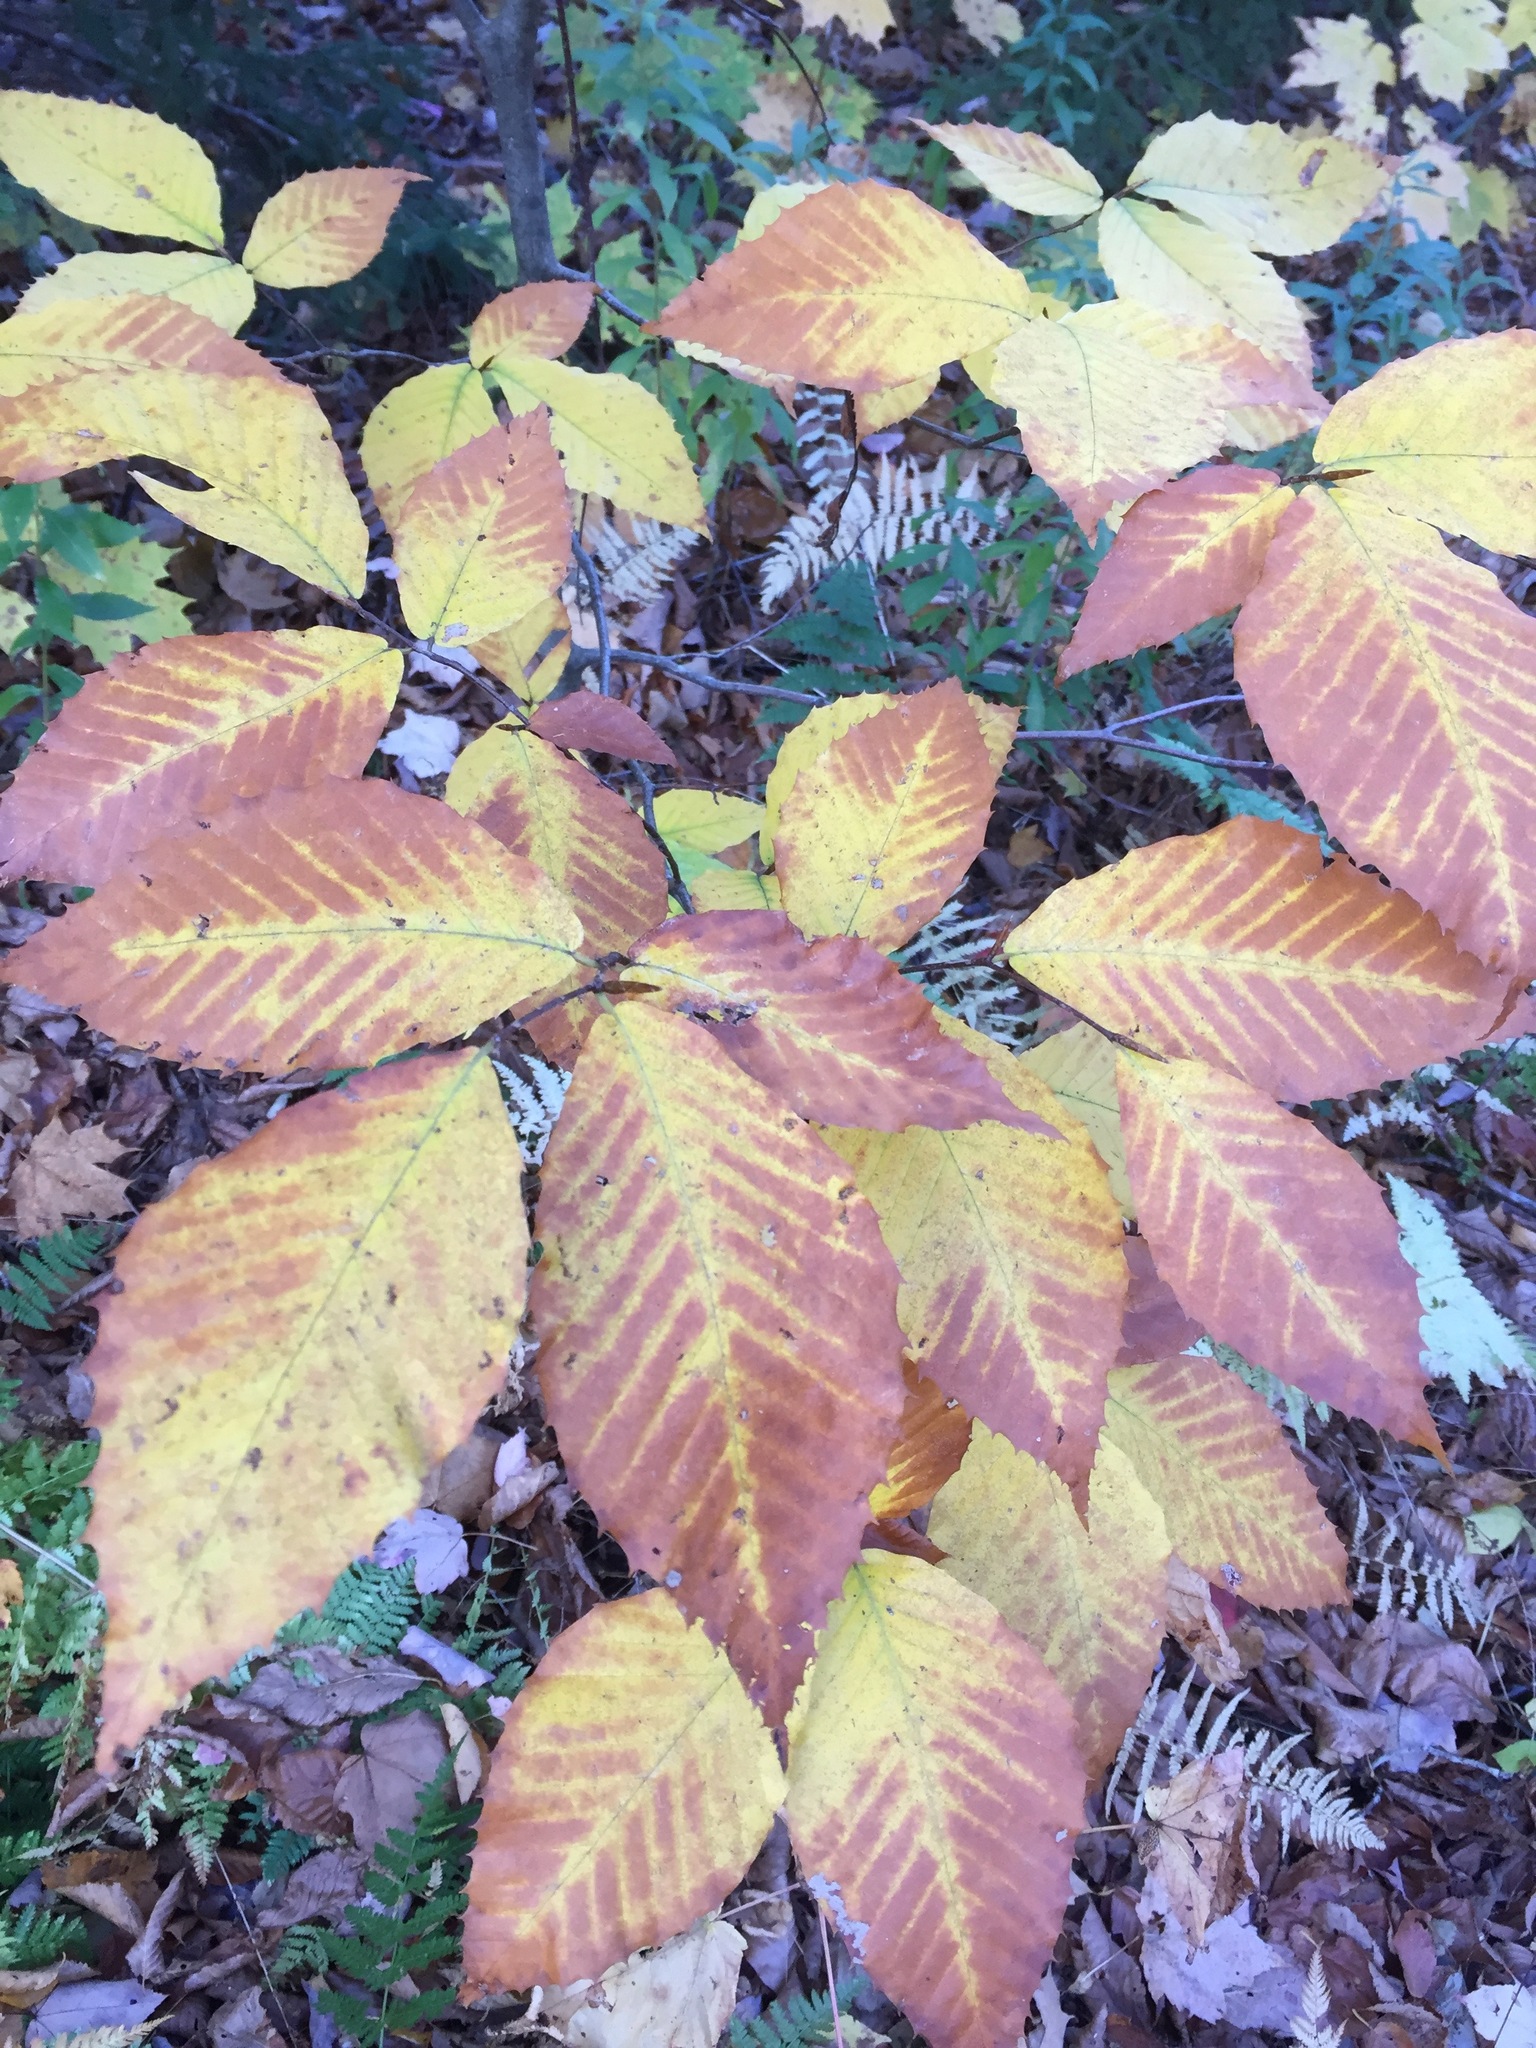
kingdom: Plantae
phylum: Tracheophyta
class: Magnoliopsida
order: Fagales
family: Fagaceae
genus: Fagus
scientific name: Fagus grandifolia
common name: American beech
